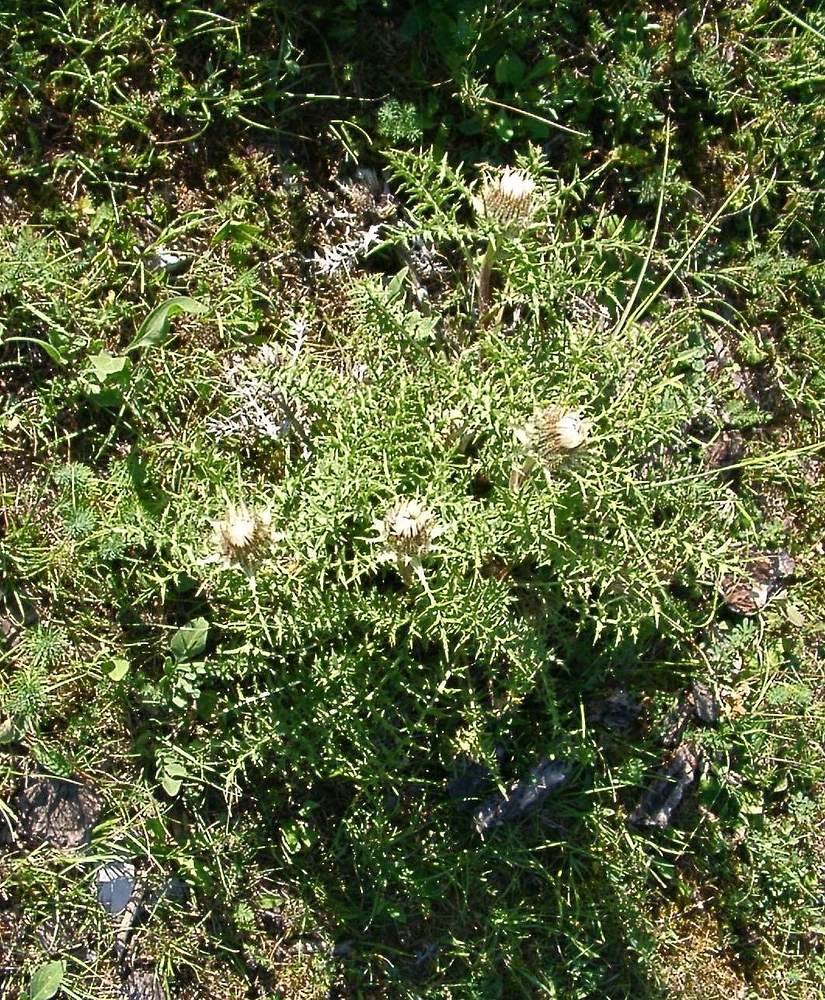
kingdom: Plantae
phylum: Tracheophyta
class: Magnoliopsida
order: Asterales
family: Asteraceae
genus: Carlina
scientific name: Carlina acaulis
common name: Stemless carline thistle
